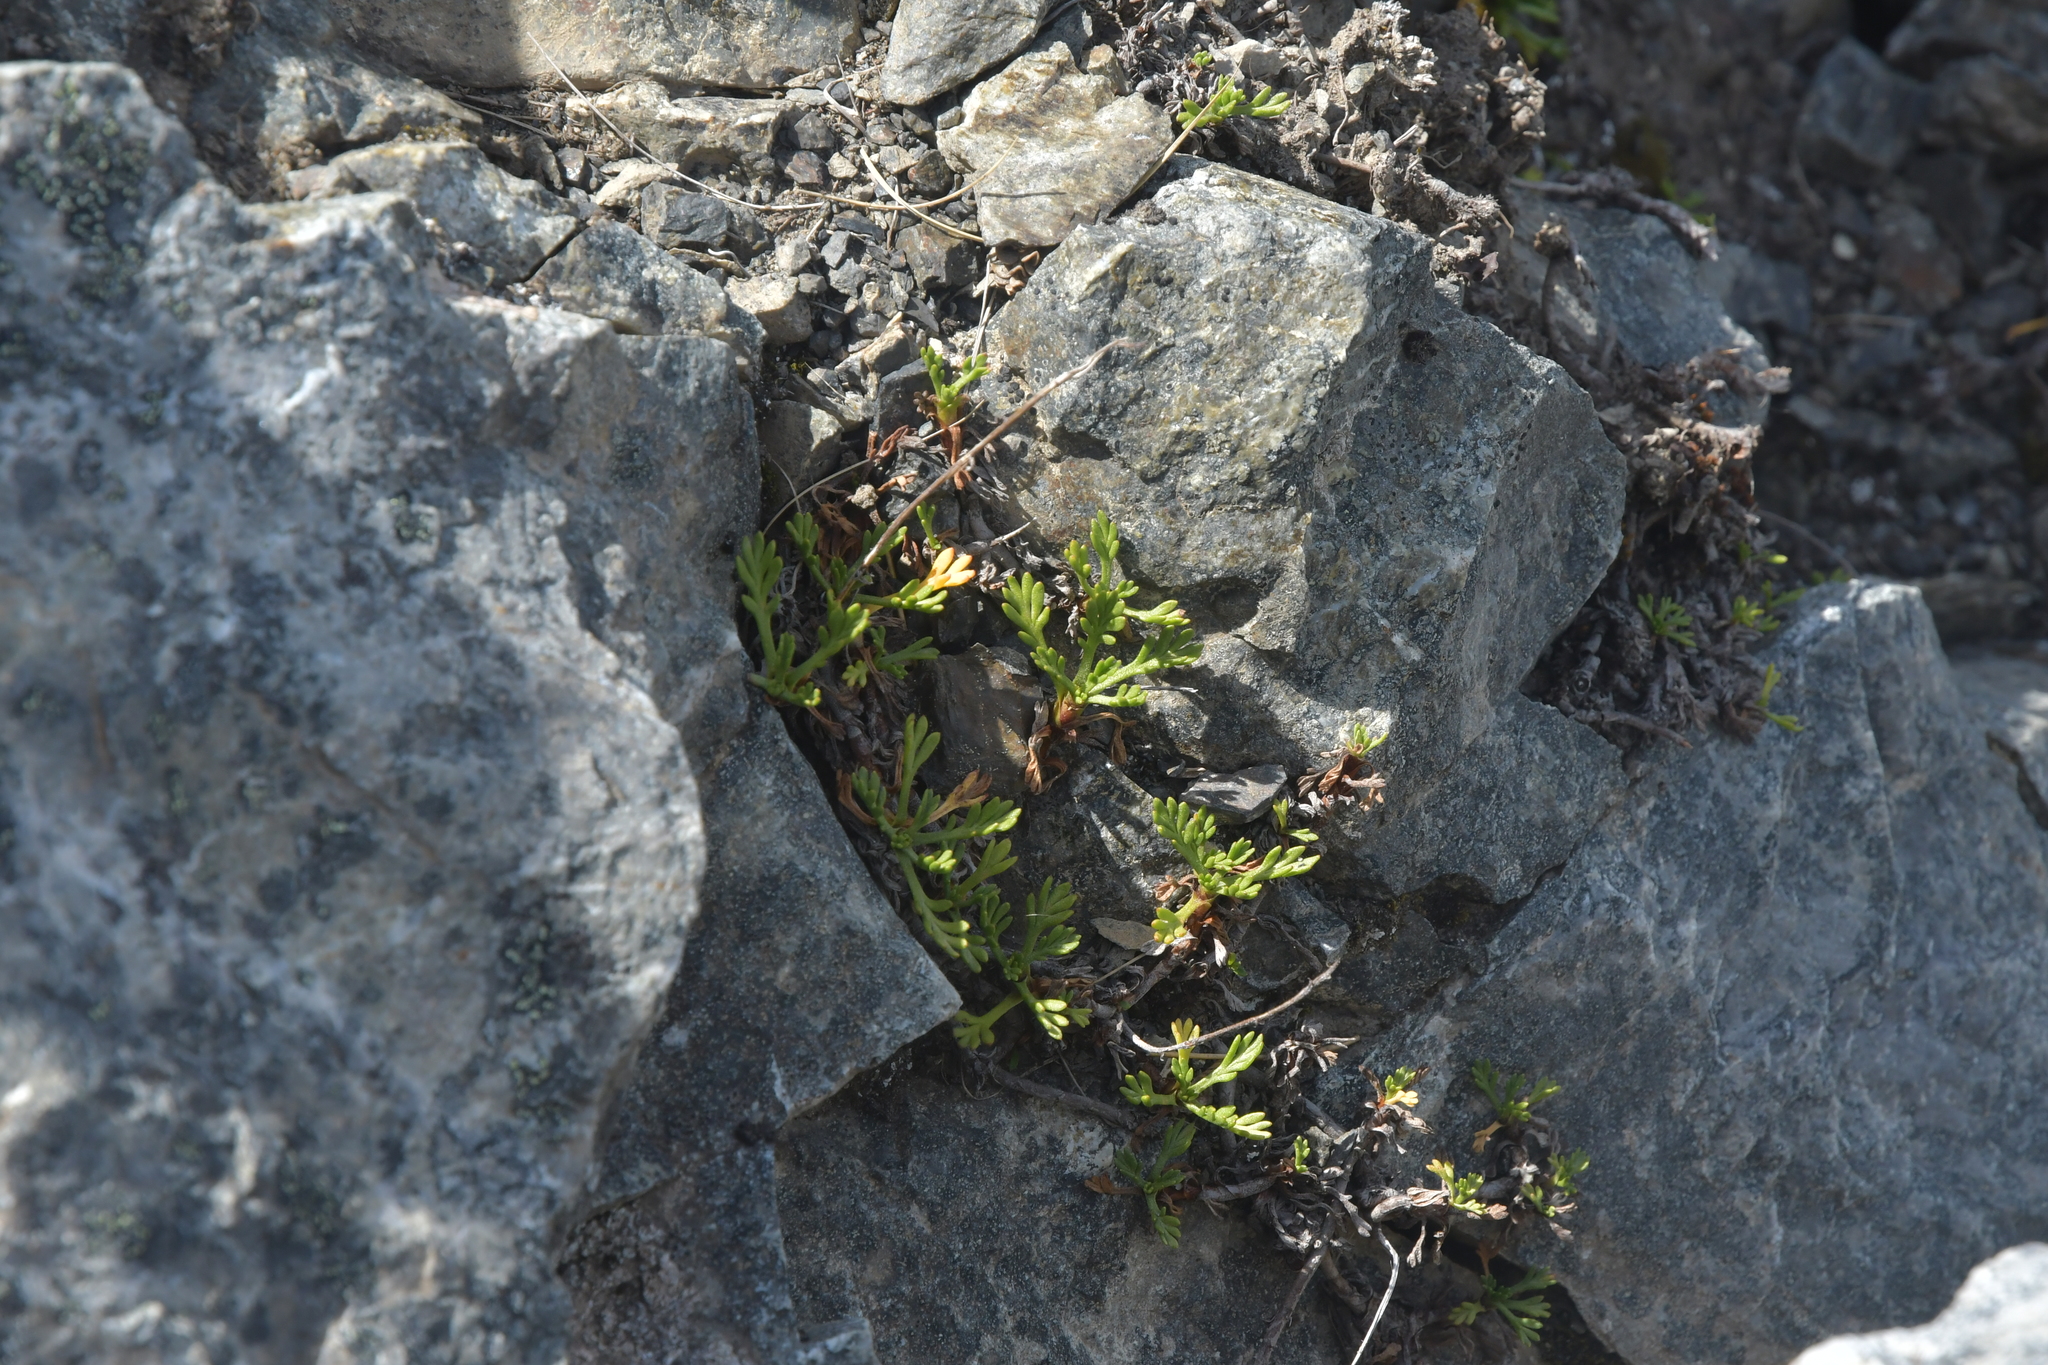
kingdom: Plantae
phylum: Tracheophyta
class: Magnoliopsida
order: Asterales
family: Asteraceae
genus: Leptinella
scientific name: Leptinella pyrethrifolia
